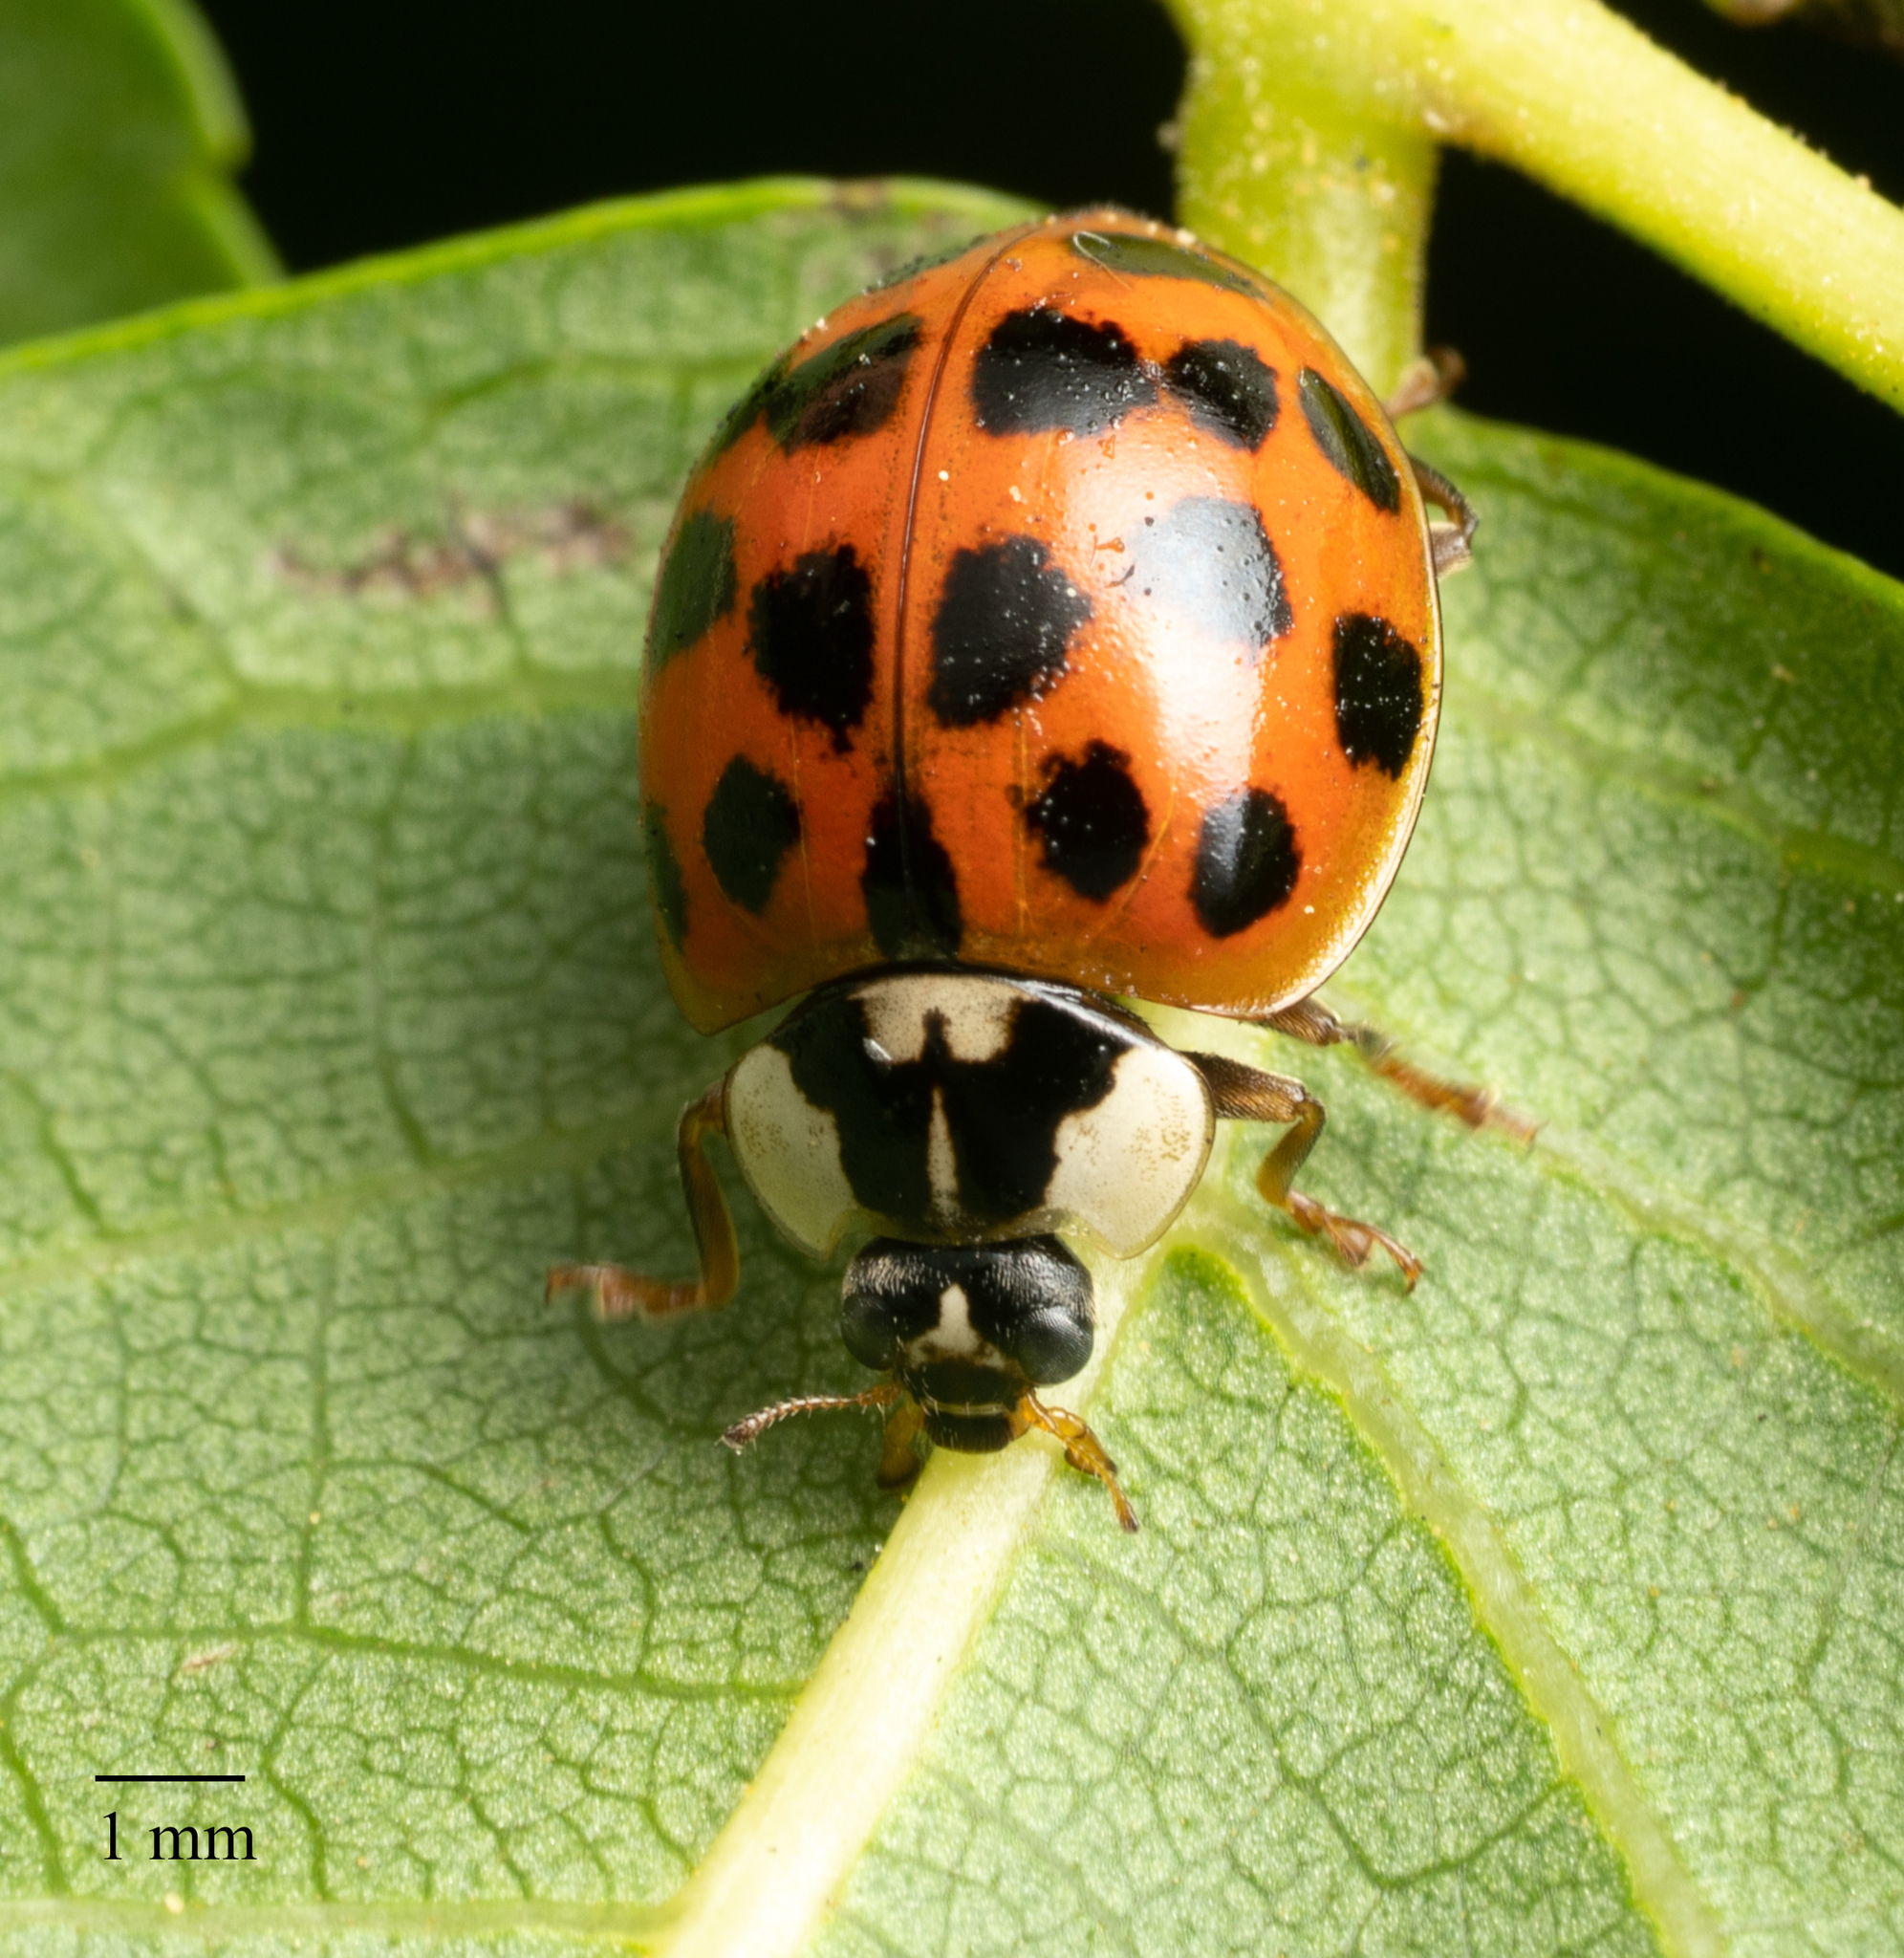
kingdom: Animalia
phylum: Arthropoda
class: Insecta
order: Coleoptera
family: Coccinellidae
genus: Harmonia
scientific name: Harmonia axyridis
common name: Harlequin ladybird
